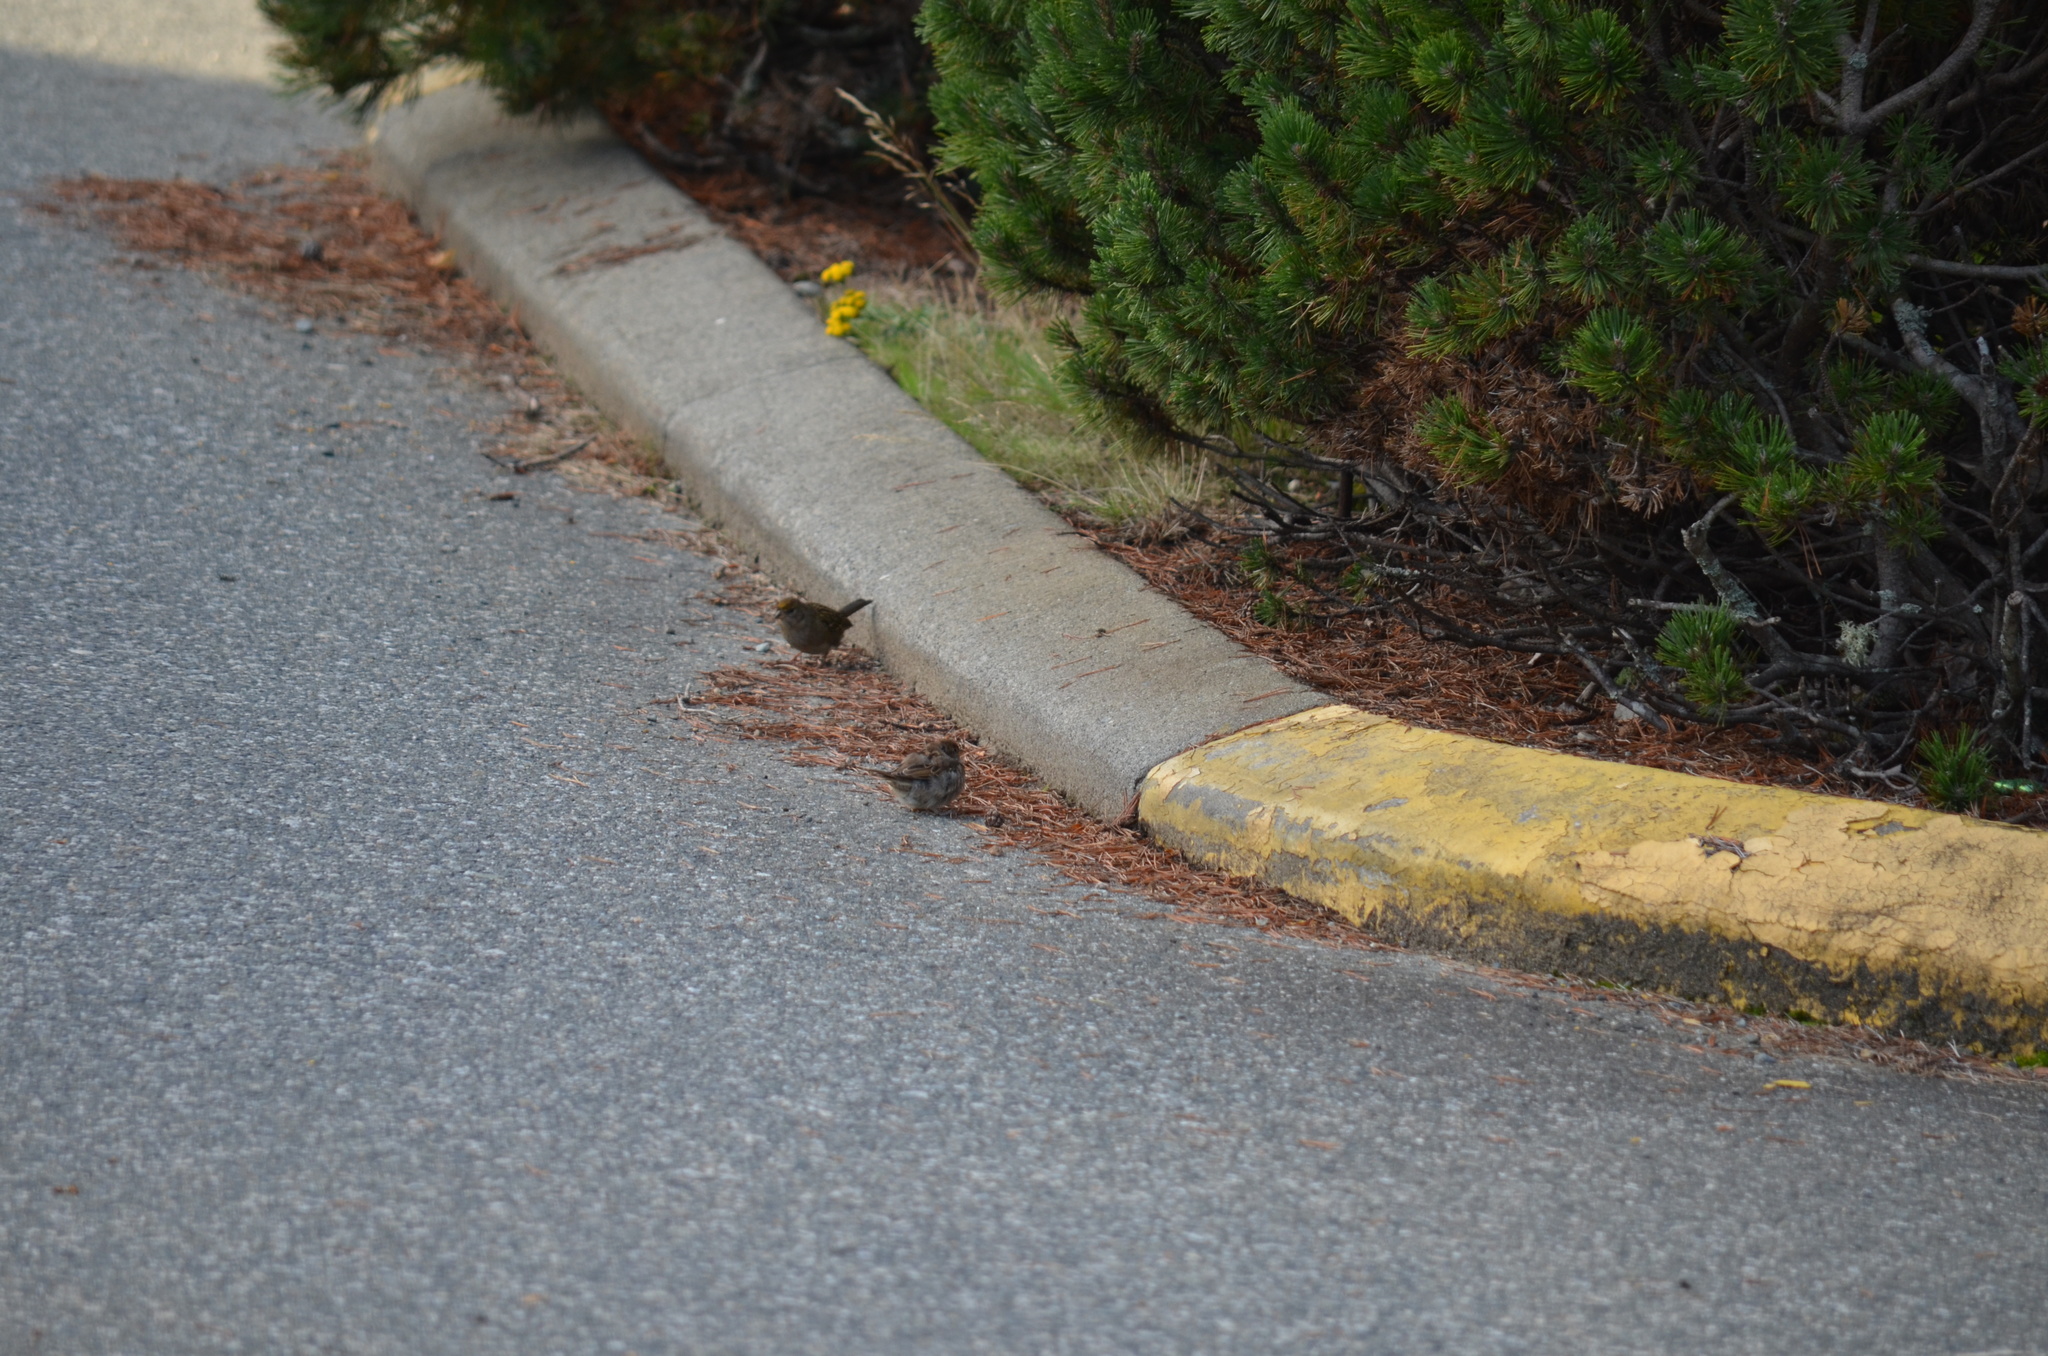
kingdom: Animalia
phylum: Chordata
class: Aves
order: Passeriformes
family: Passerellidae
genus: Zonotrichia
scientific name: Zonotrichia atricapilla
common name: Golden-crowned sparrow
